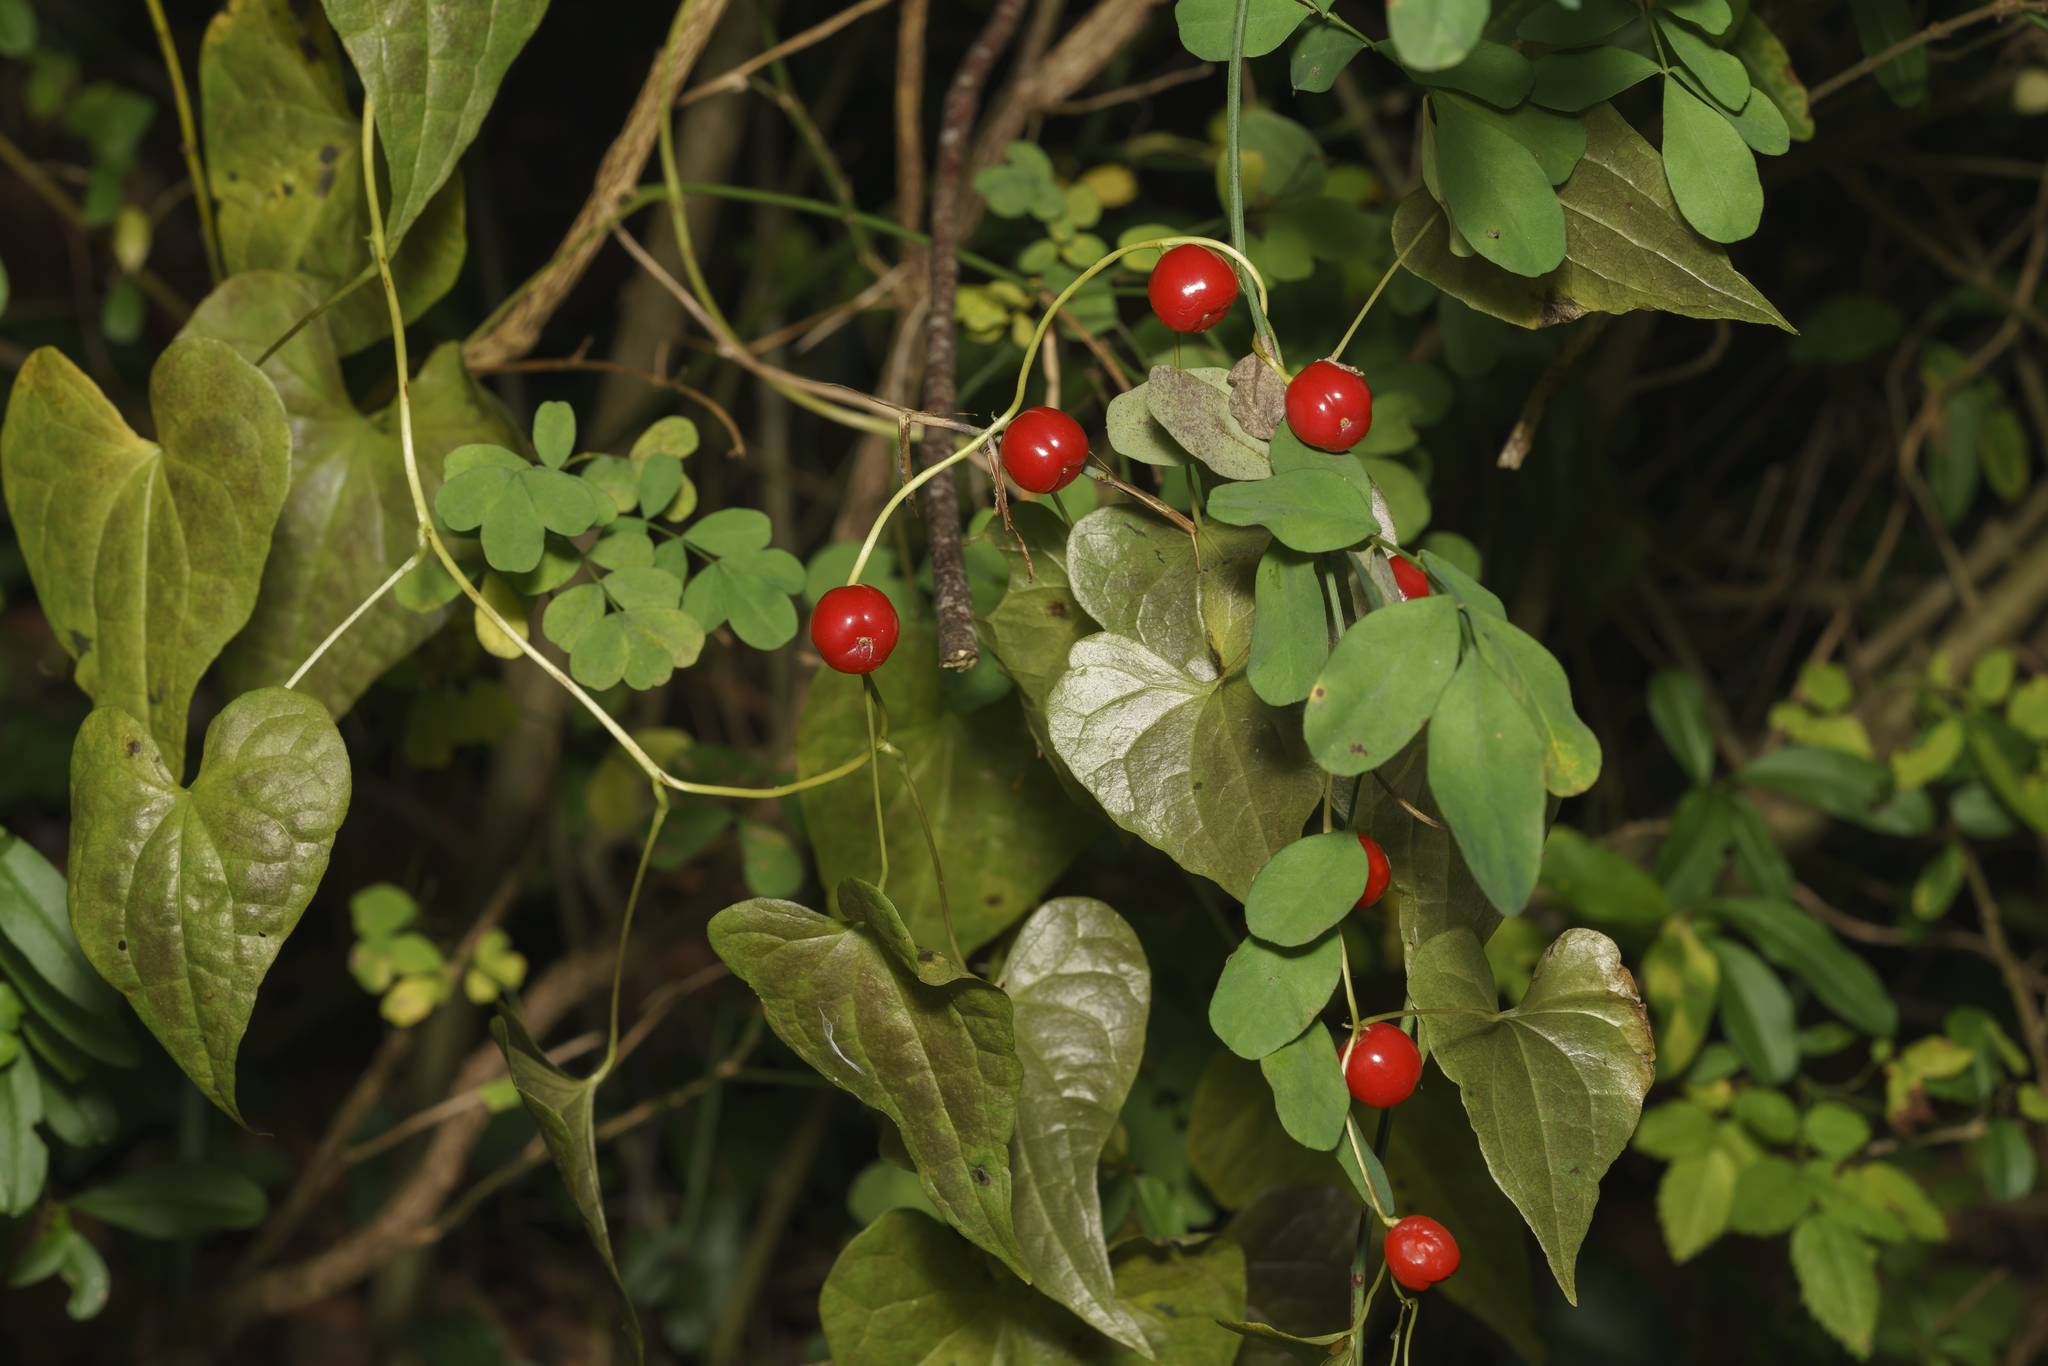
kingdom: Plantae
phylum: Tracheophyta
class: Liliopsida
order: Dioscoreales
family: Dioscoreaceae
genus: Dioscorea
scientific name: Dioscorea communis
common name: Black-bindweed
